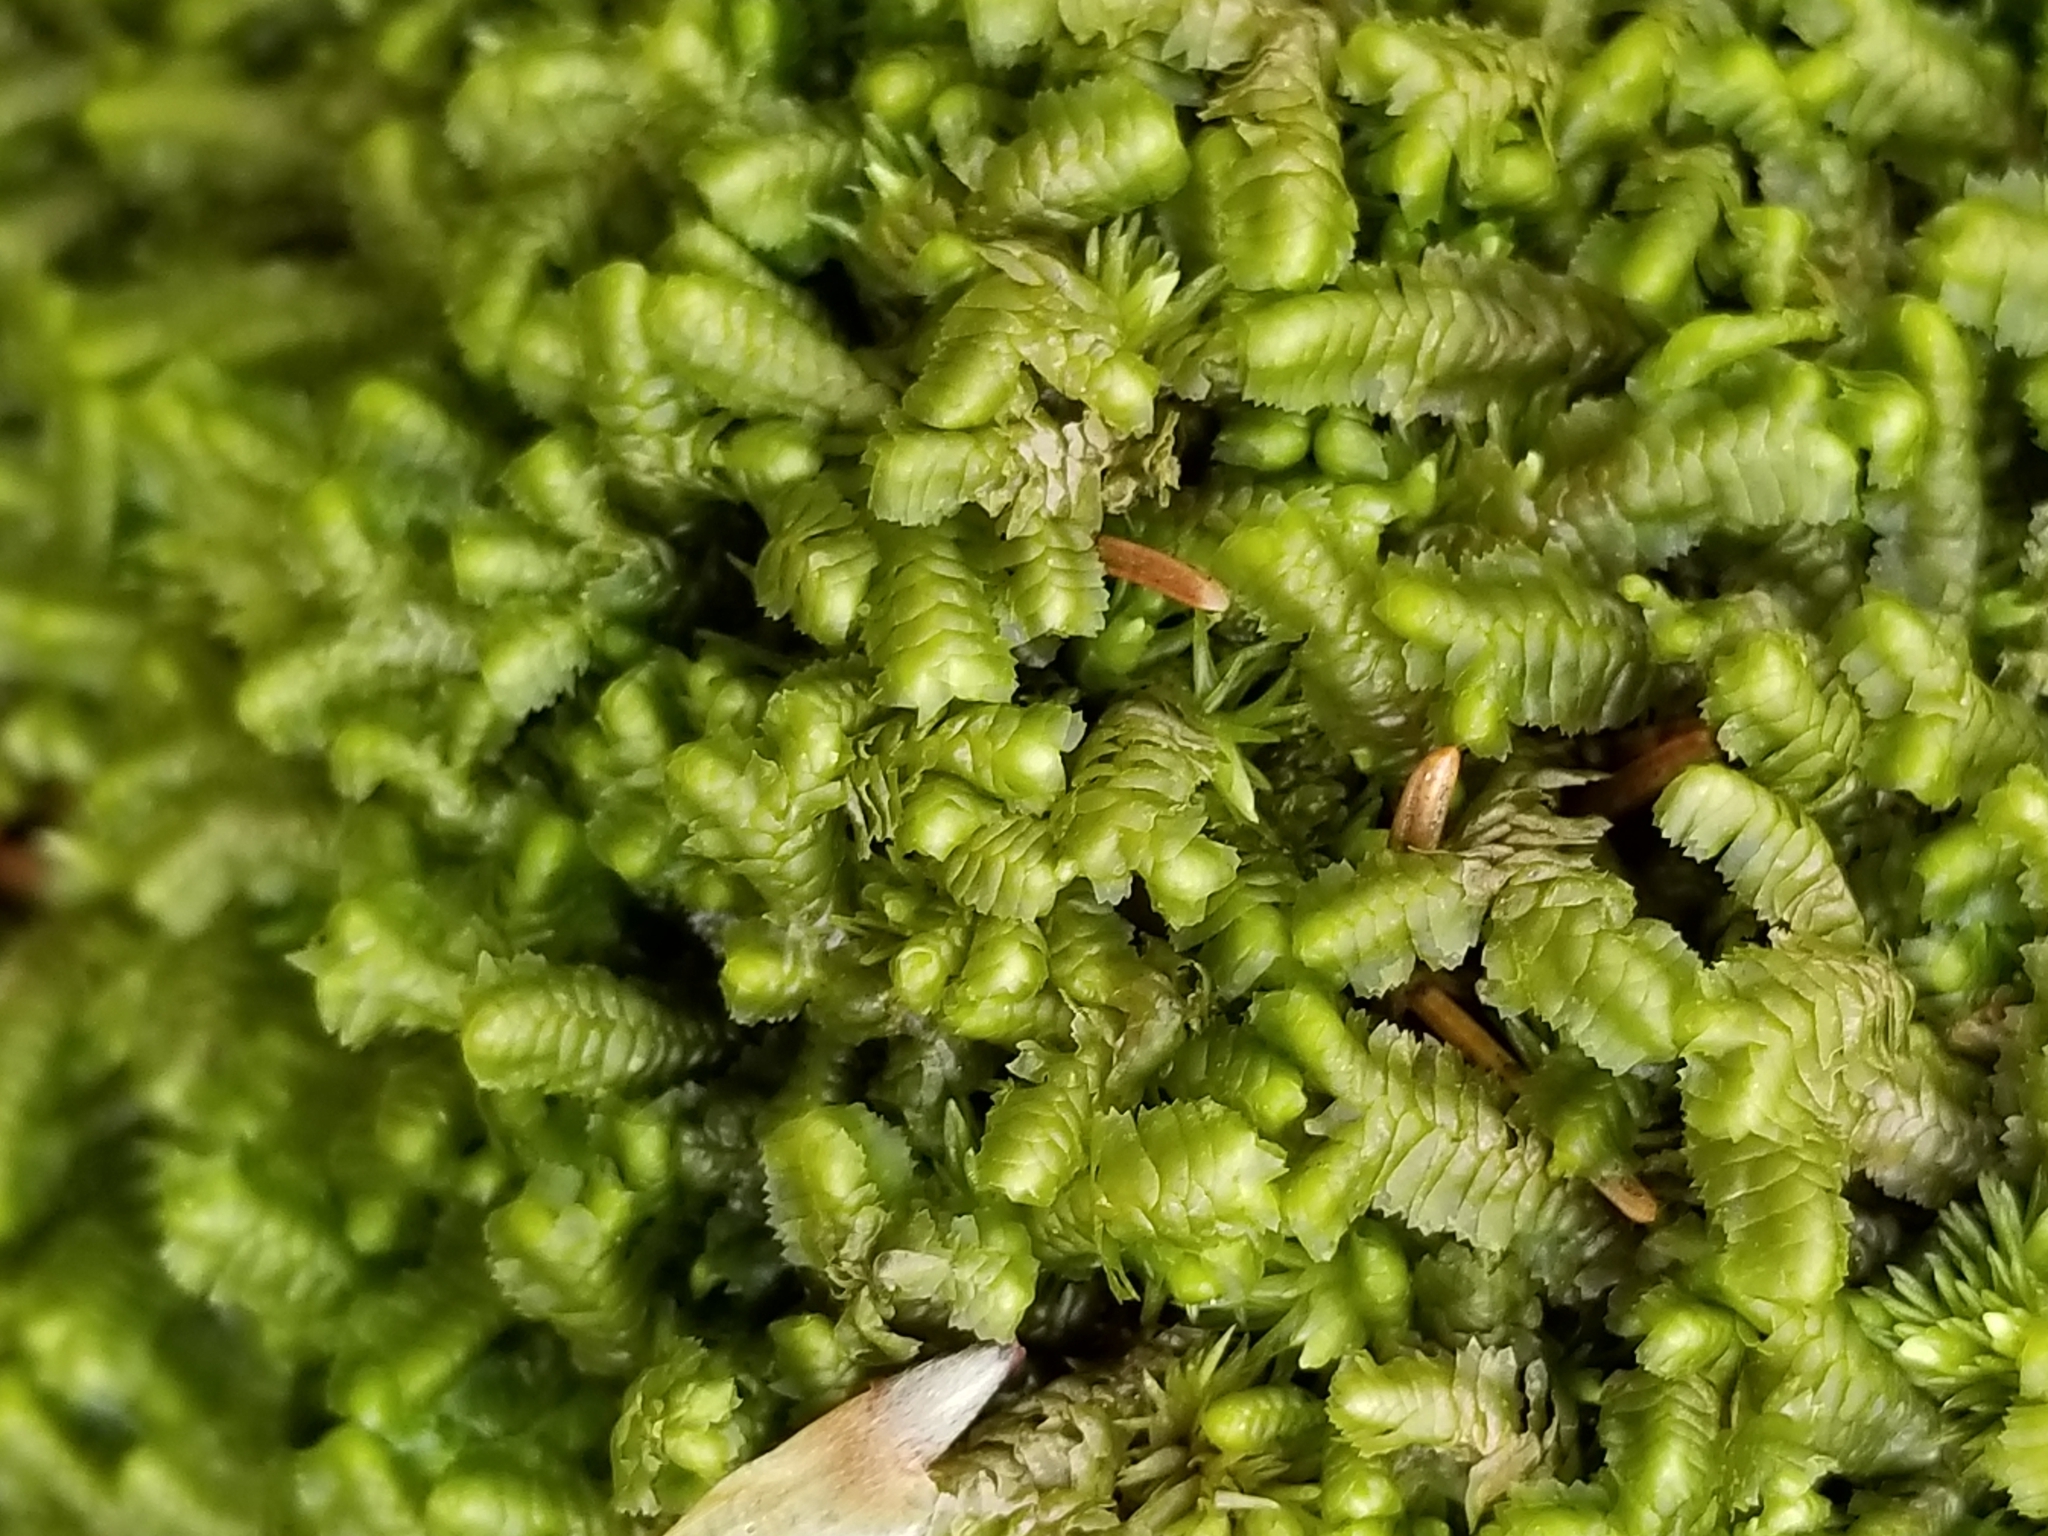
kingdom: Plantae
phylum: Marchantiophyta
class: Jungermanniopsida
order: Jungermanniales
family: Lepidoziaceae
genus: Bazzania
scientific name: Bazzania trilobata
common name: Three-lobed whipwort
